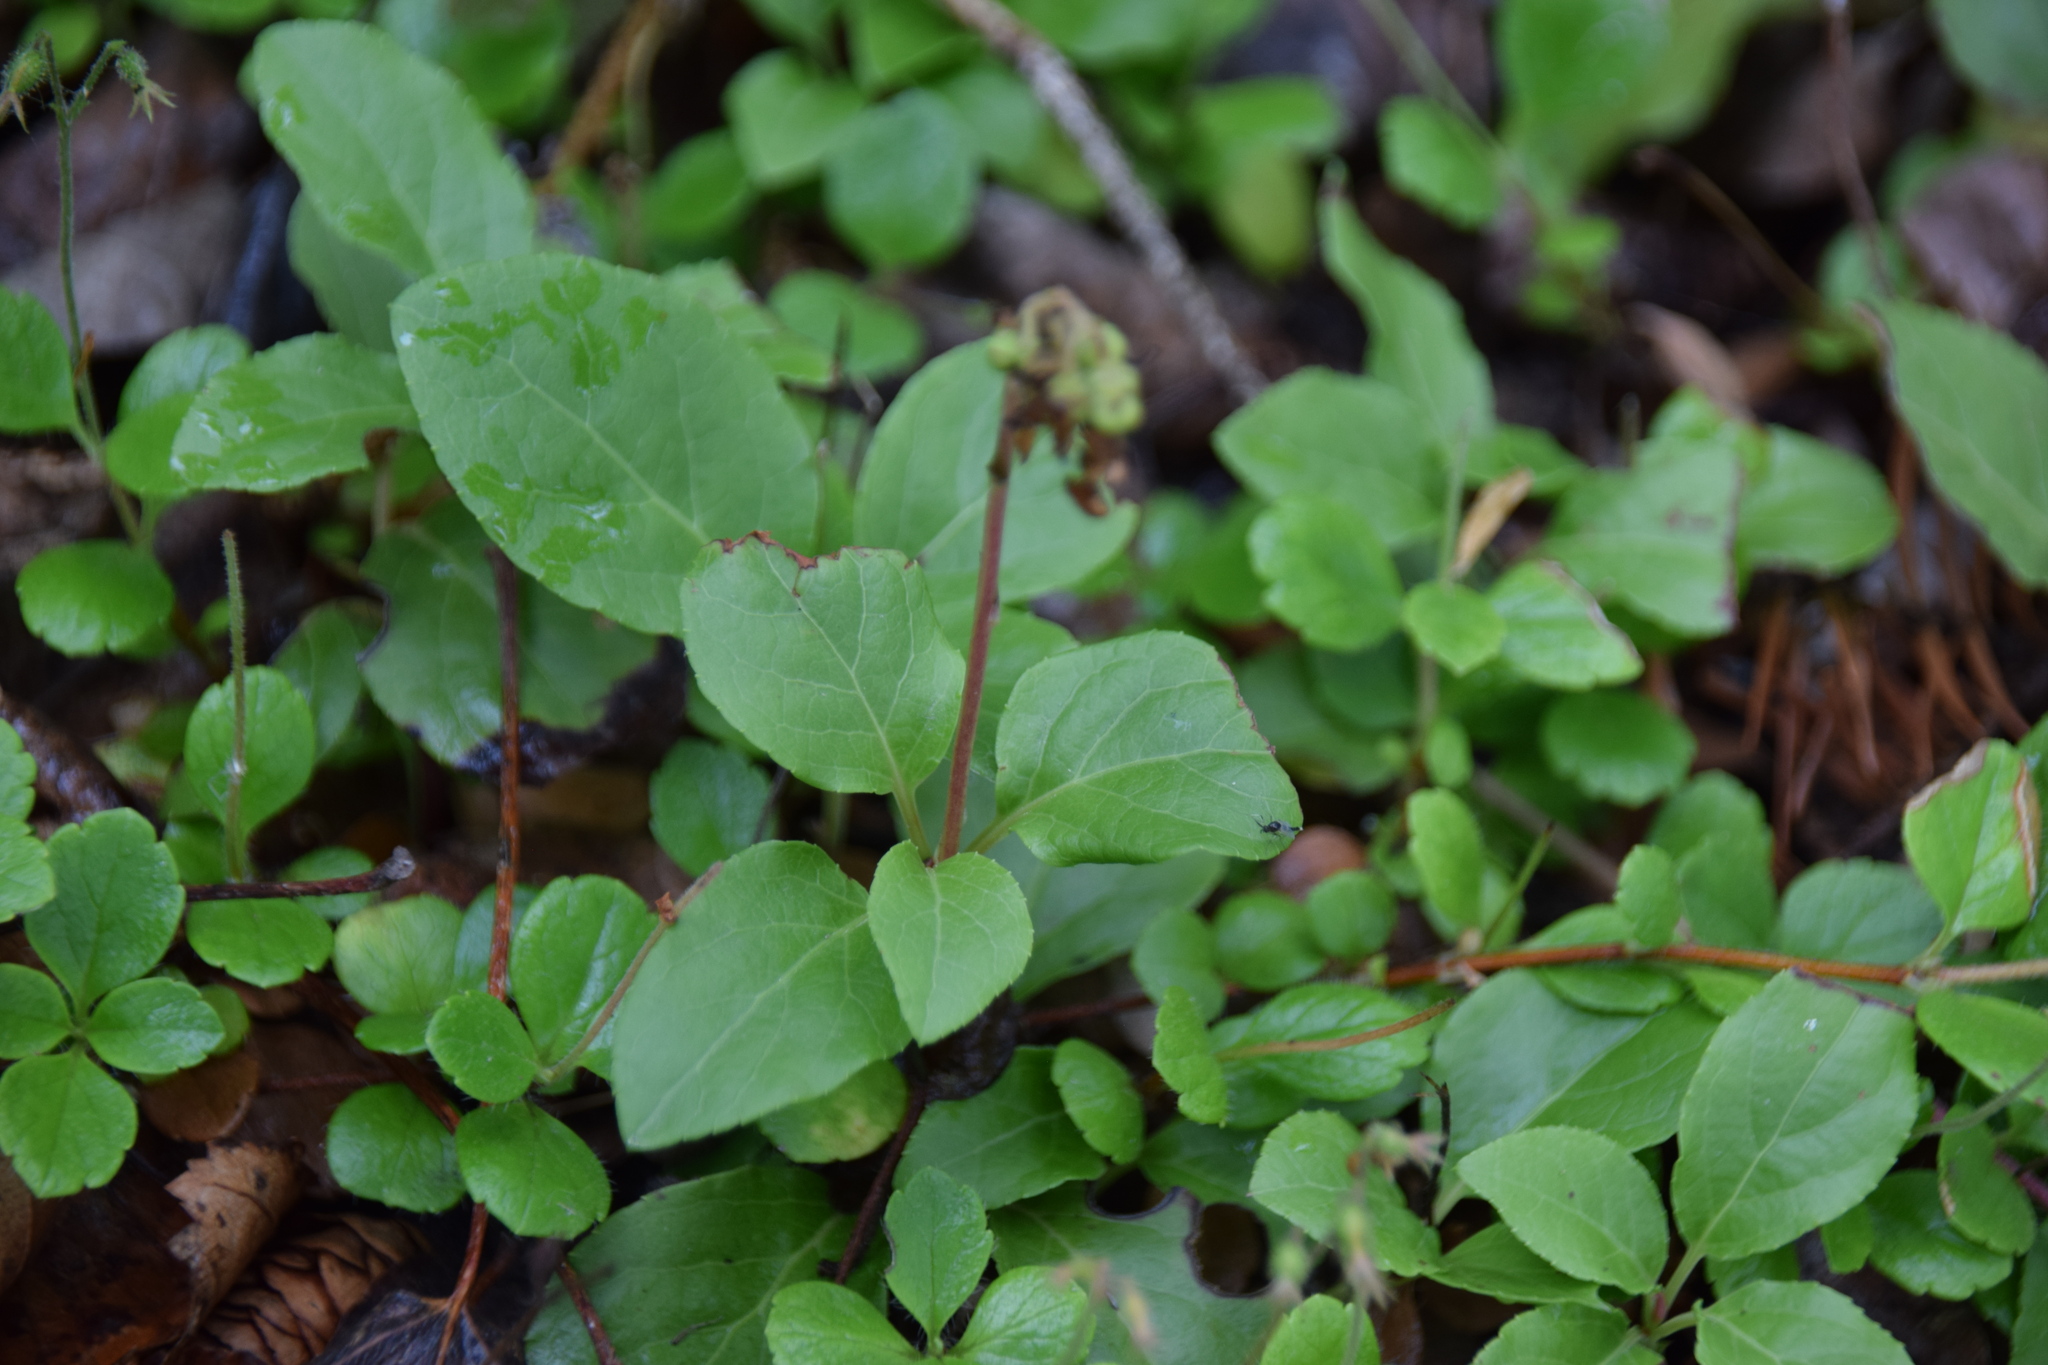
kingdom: Plantae
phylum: Tracheophyta
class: Magnoliopsida
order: Ericales
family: Ericaceae
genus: Orthilia
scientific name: Orthilia secunda
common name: One-sided orthilia
